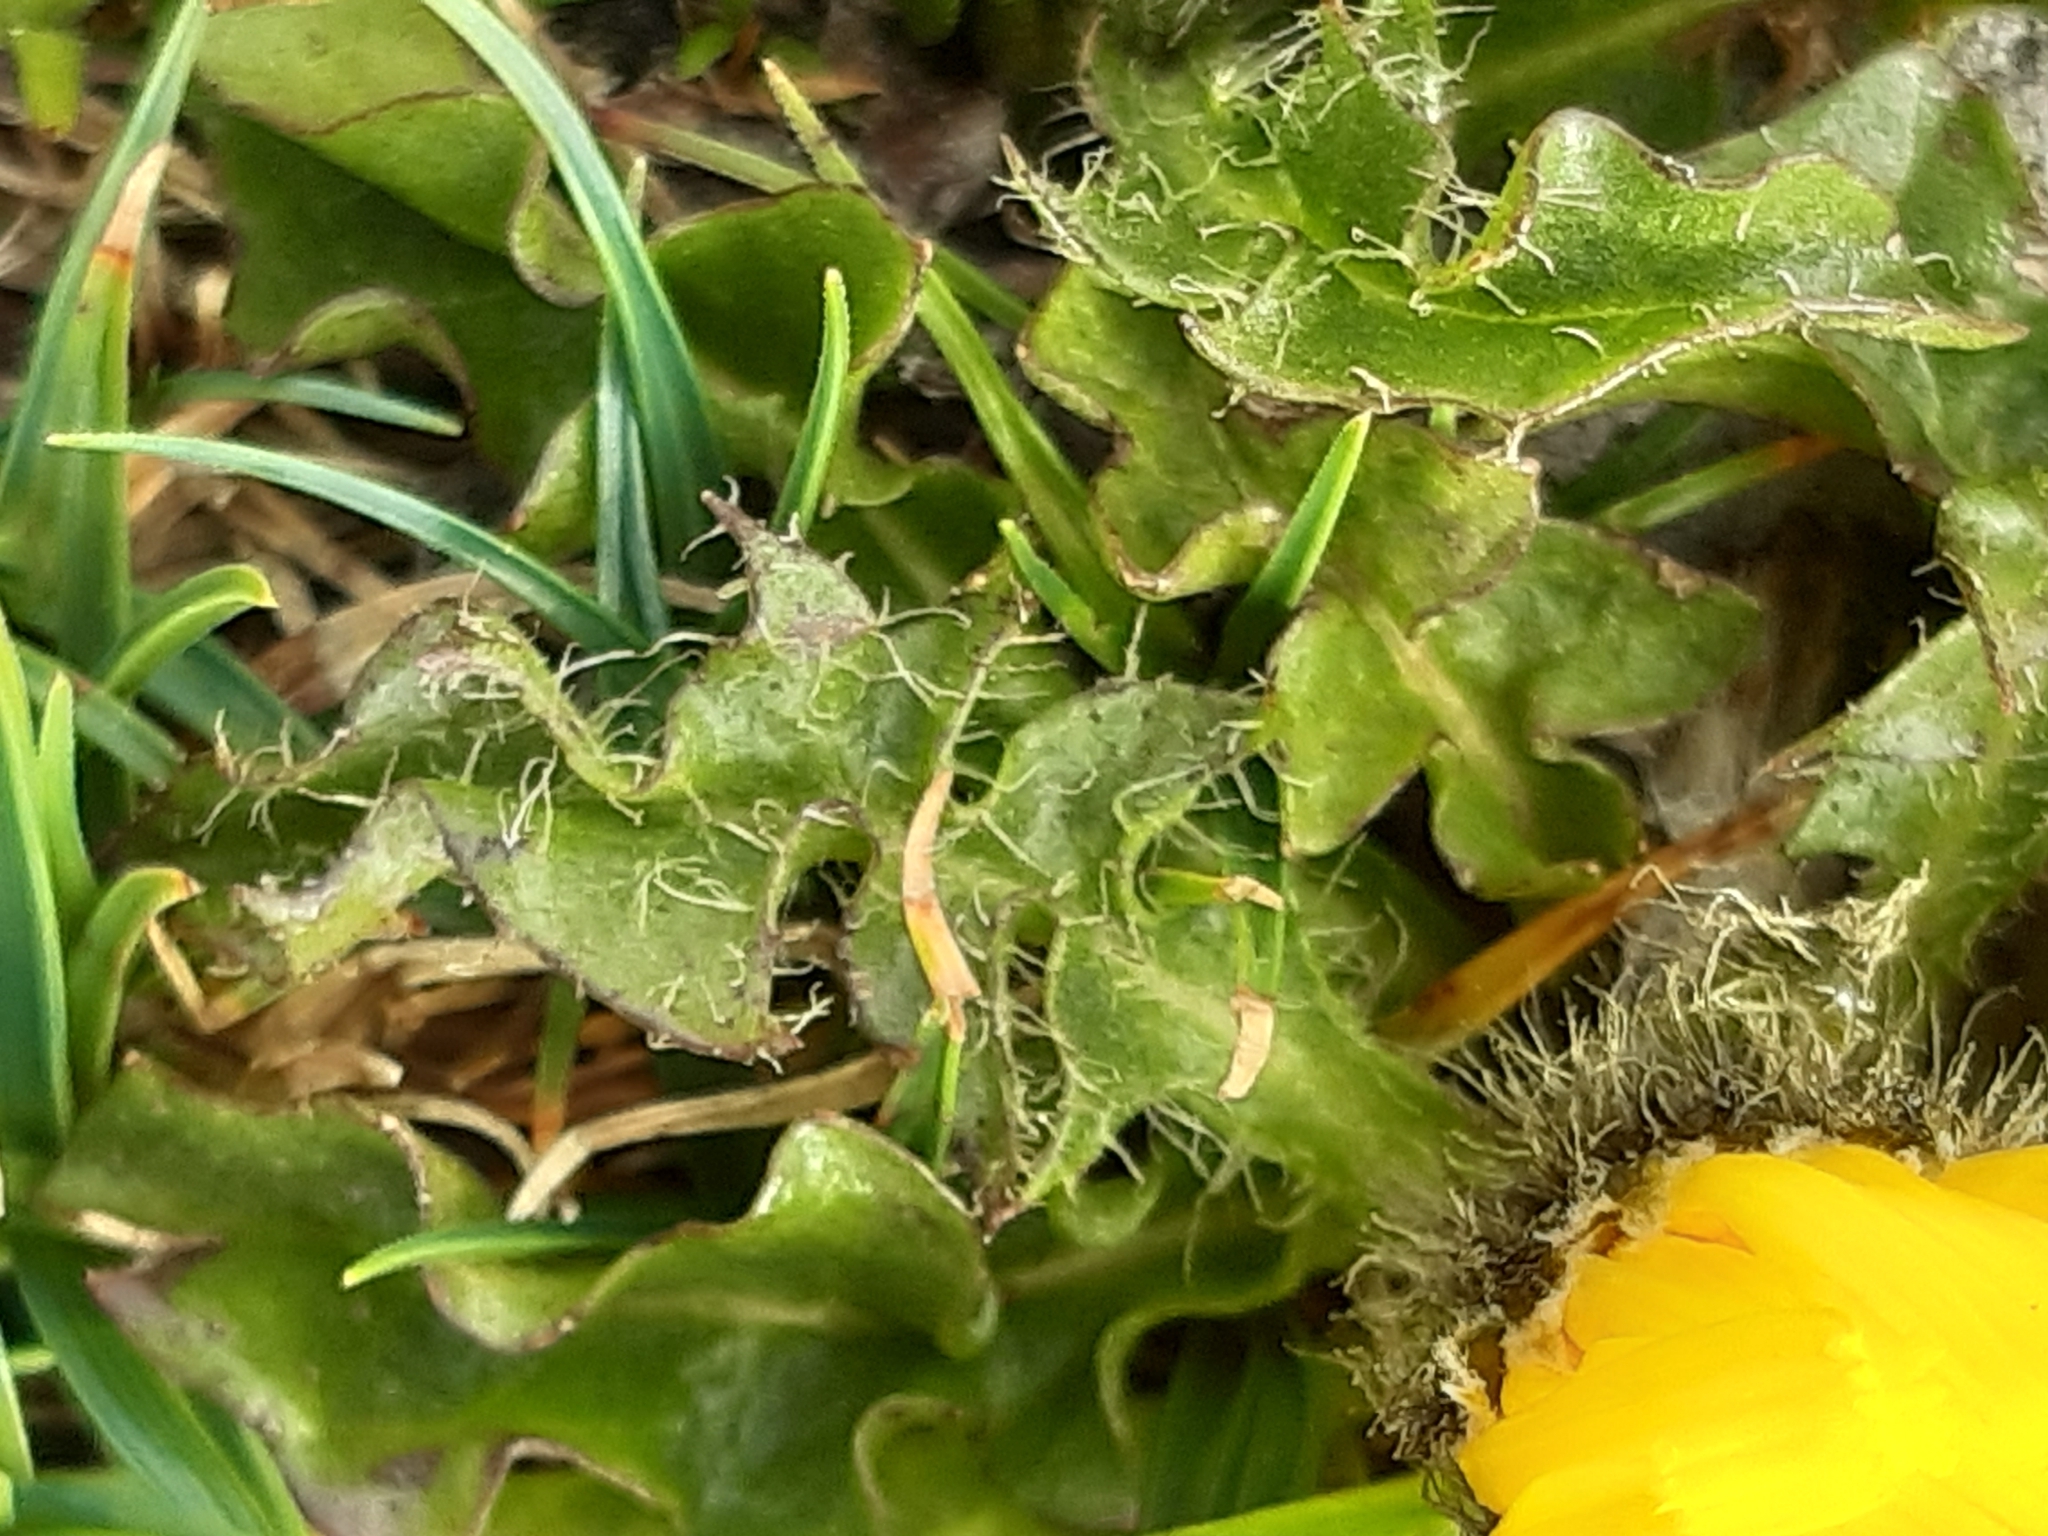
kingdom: Plantae
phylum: Tracheophyta
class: Magnoliopsida
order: Asterales
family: Asteraceae
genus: Crepis
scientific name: Crepis terglouensis
